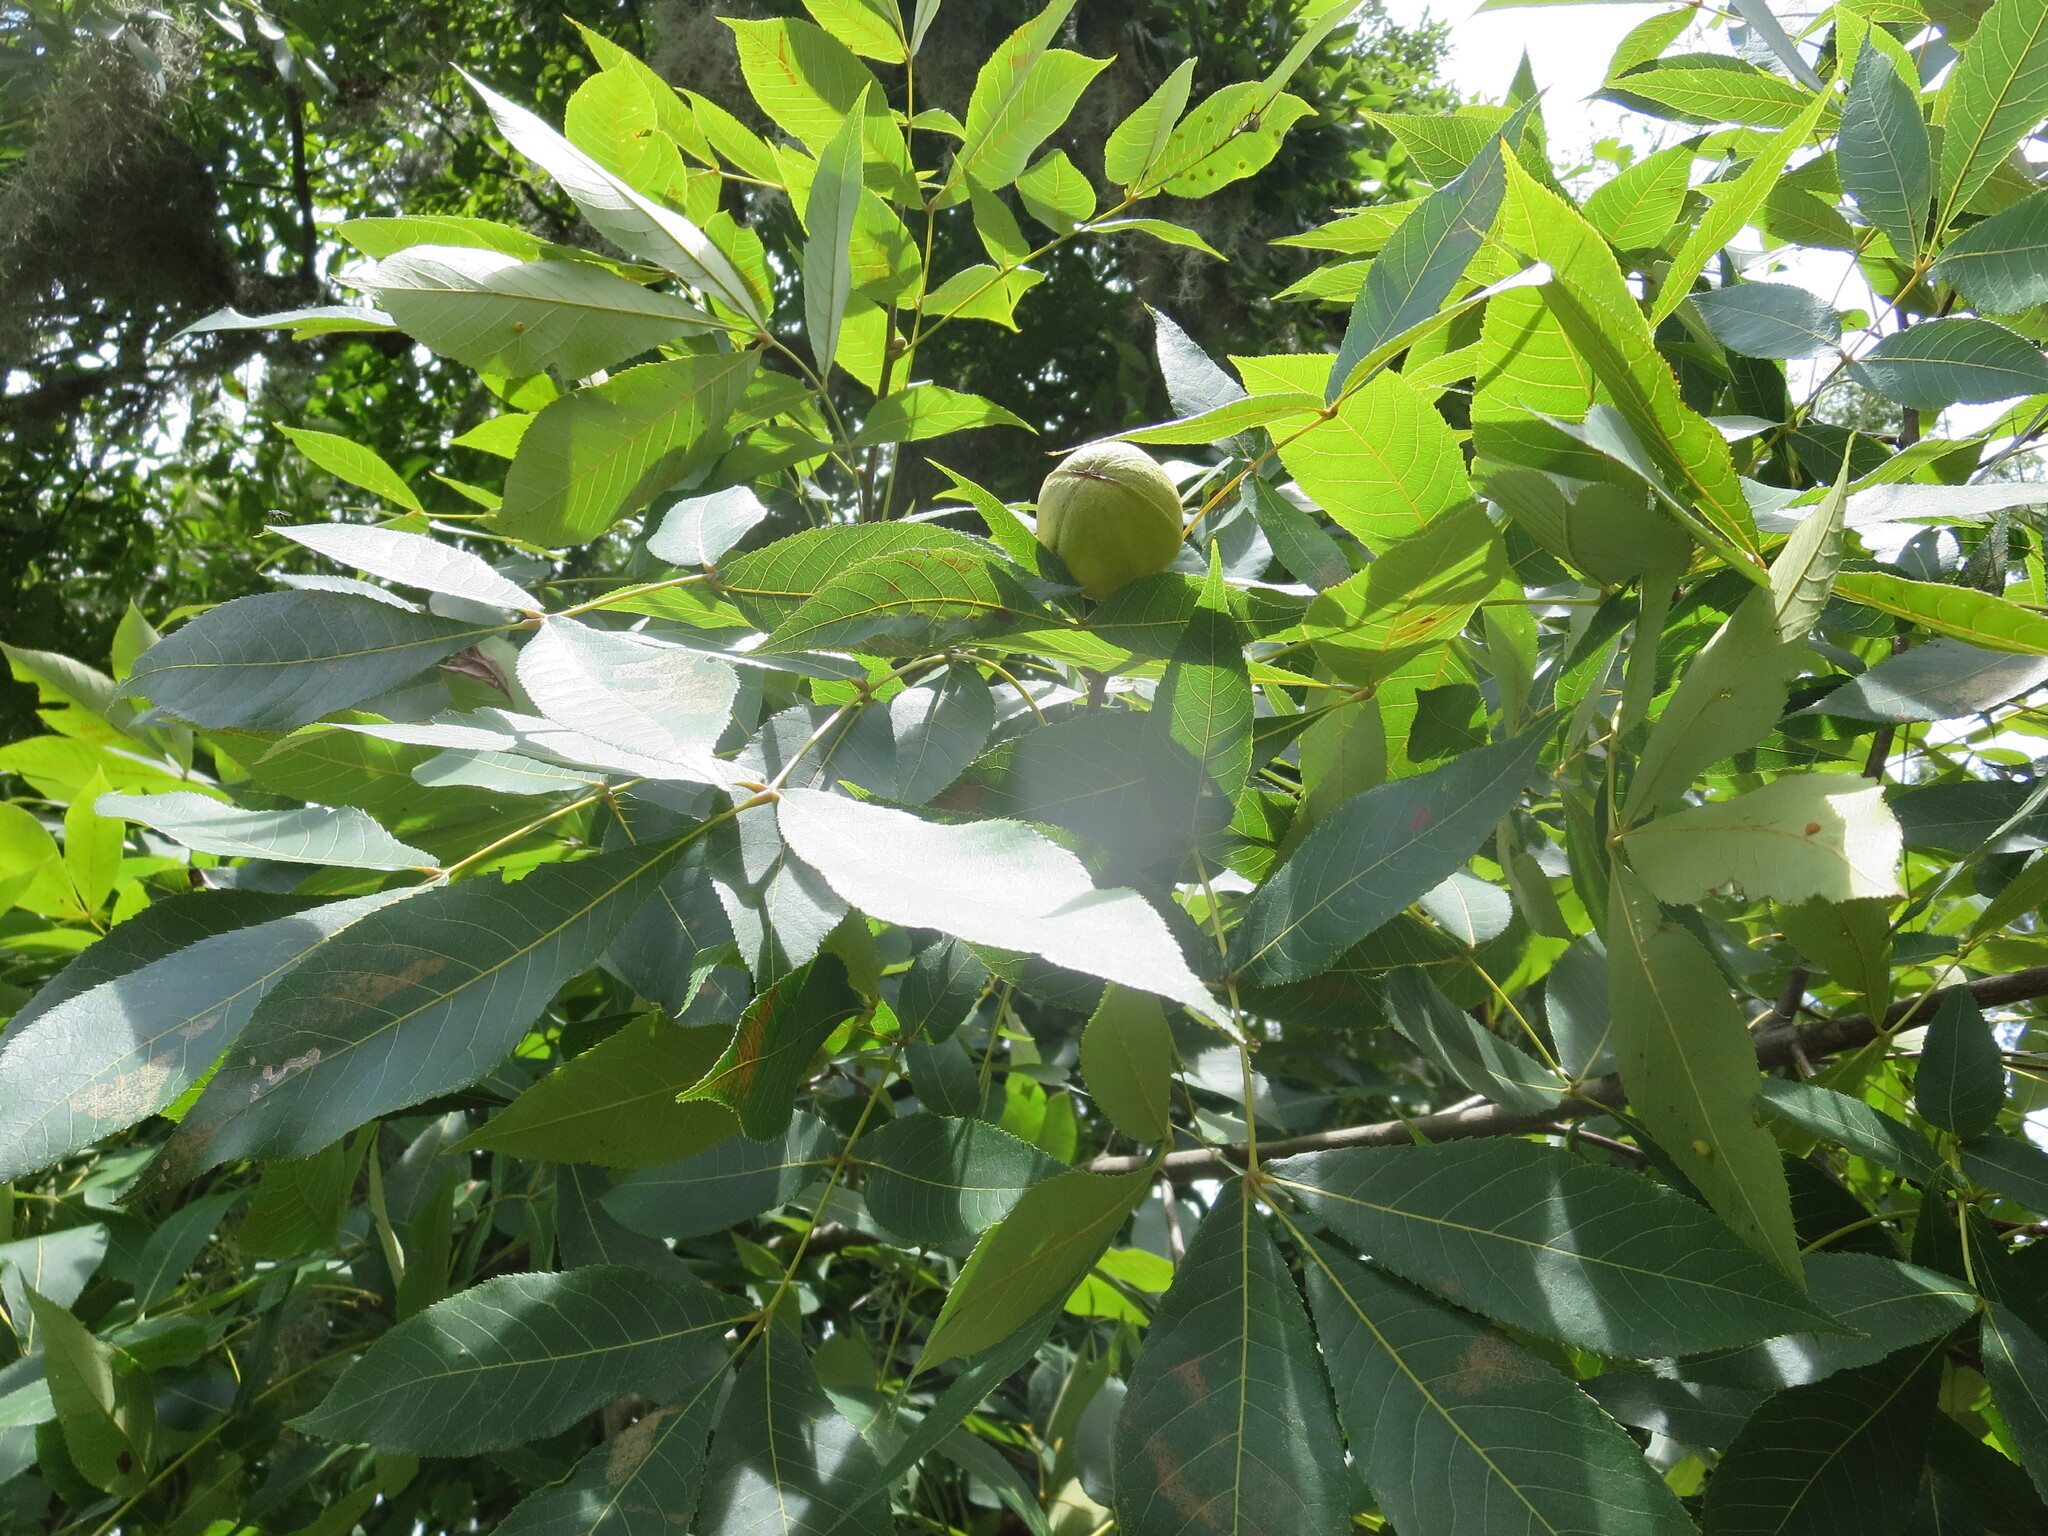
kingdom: Plantae
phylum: Tracheophyta
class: Magnoliopsida
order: Fagales
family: Juglandaceae
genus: Carya
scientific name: Carya glabra
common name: Pignut hickory
